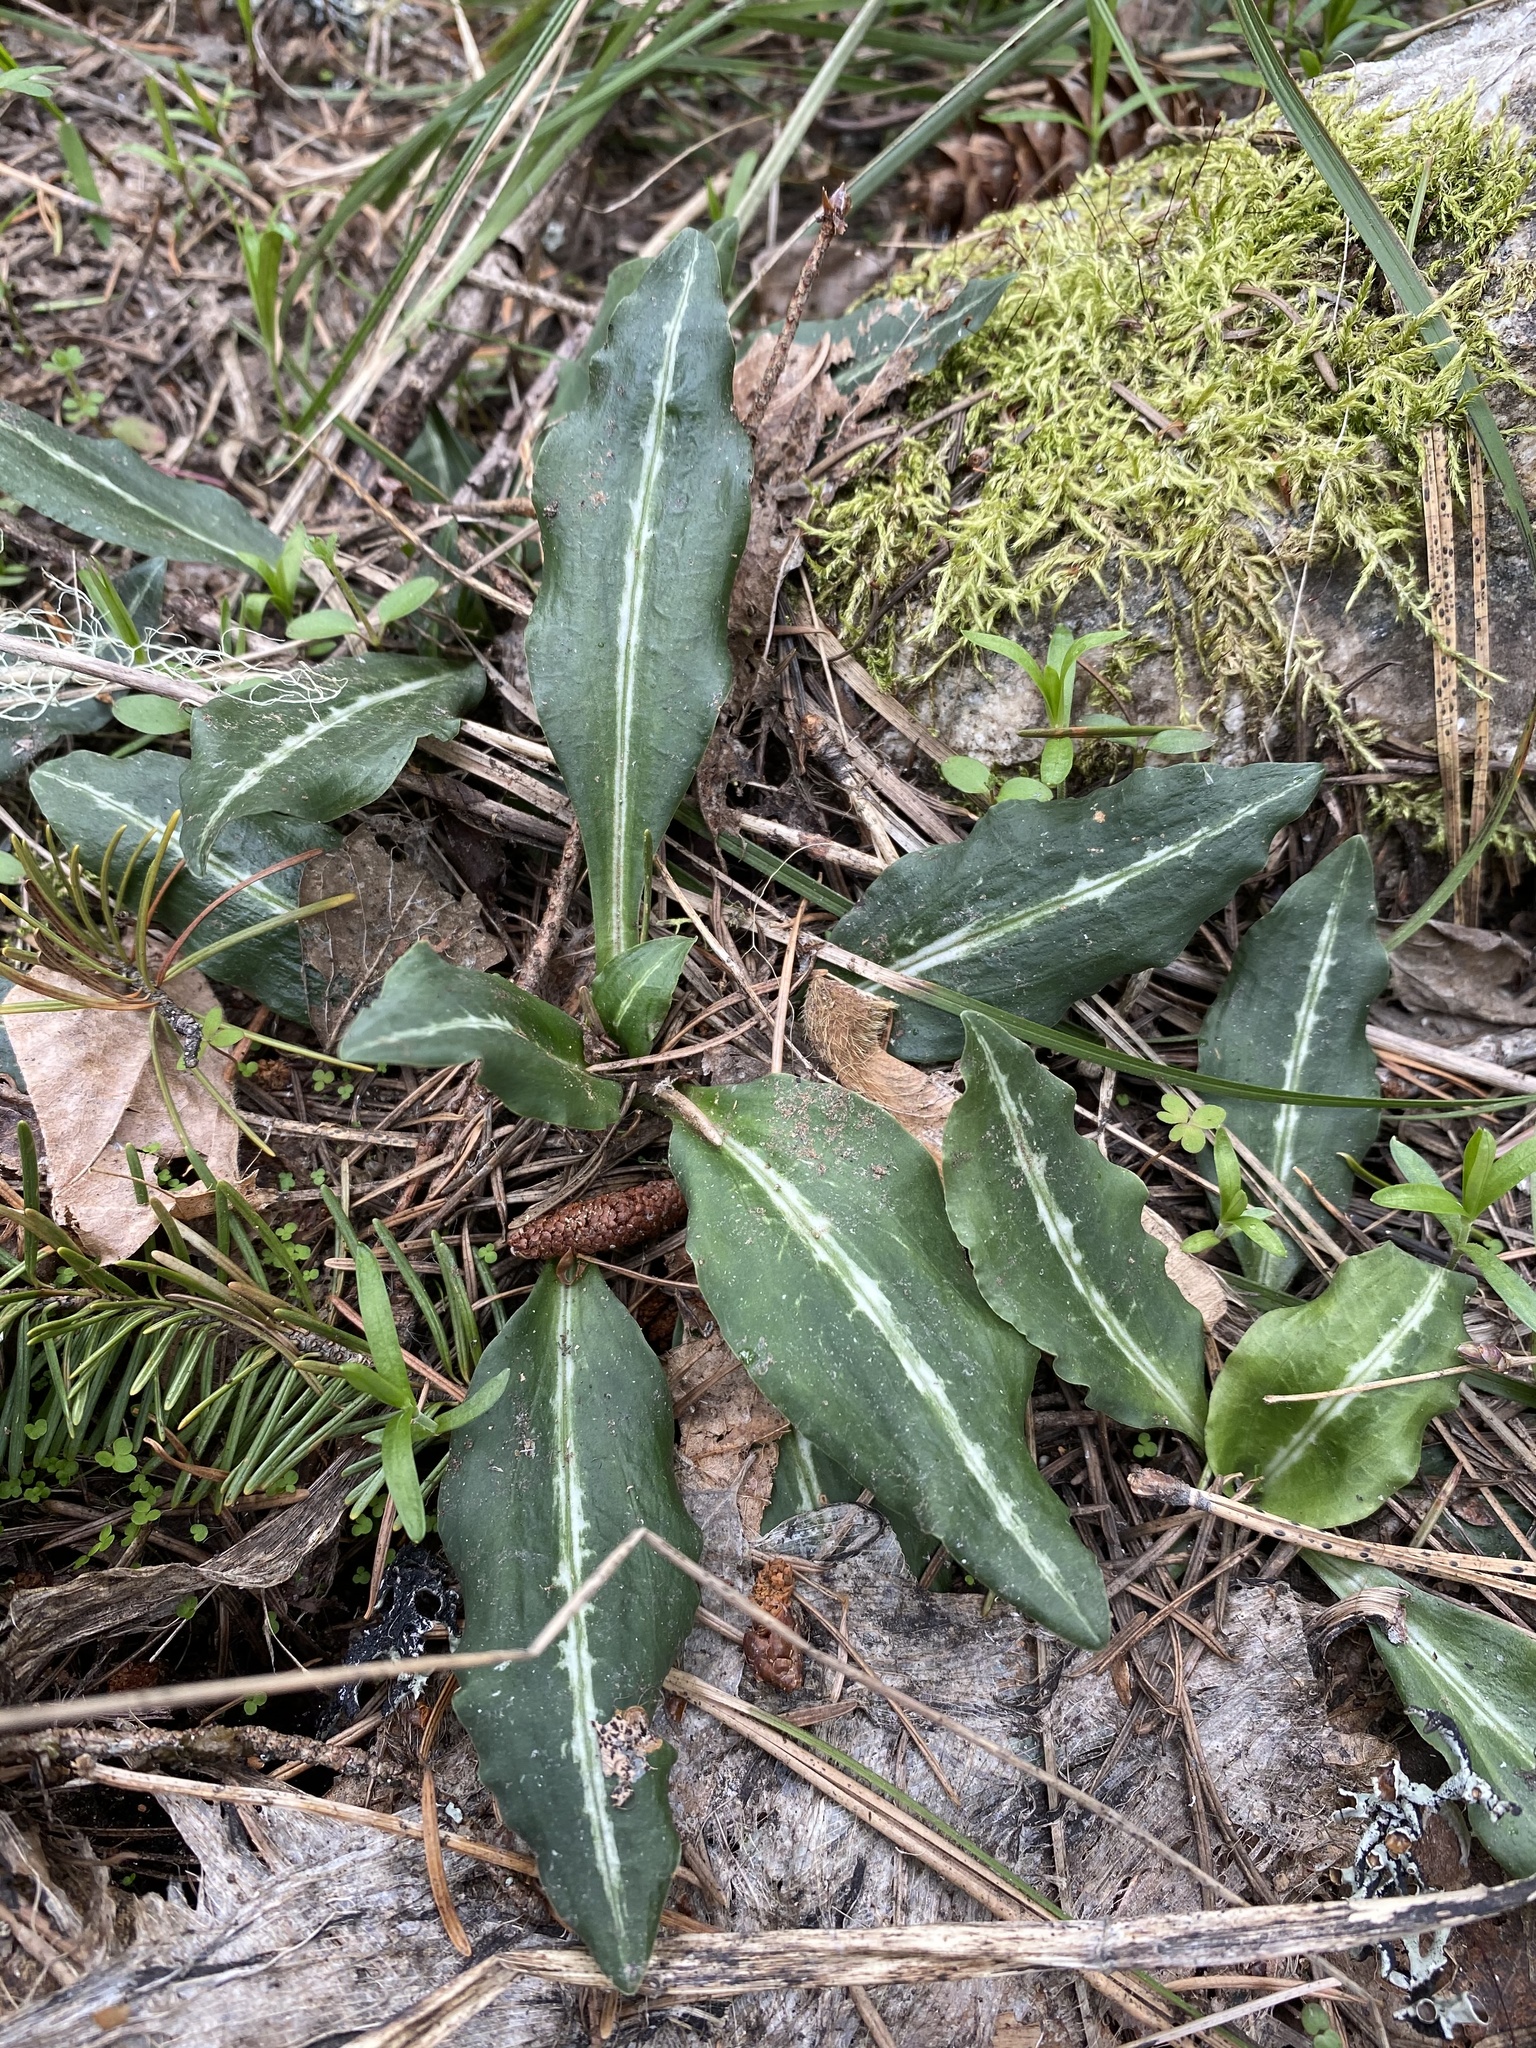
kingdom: Plantae
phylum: Tracheophyta
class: Liliopsida
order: Asparagales
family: Orchidaceae
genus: Goodyera
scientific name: Goodyera oblongifolia
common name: Giant rattlesnake-plantain
